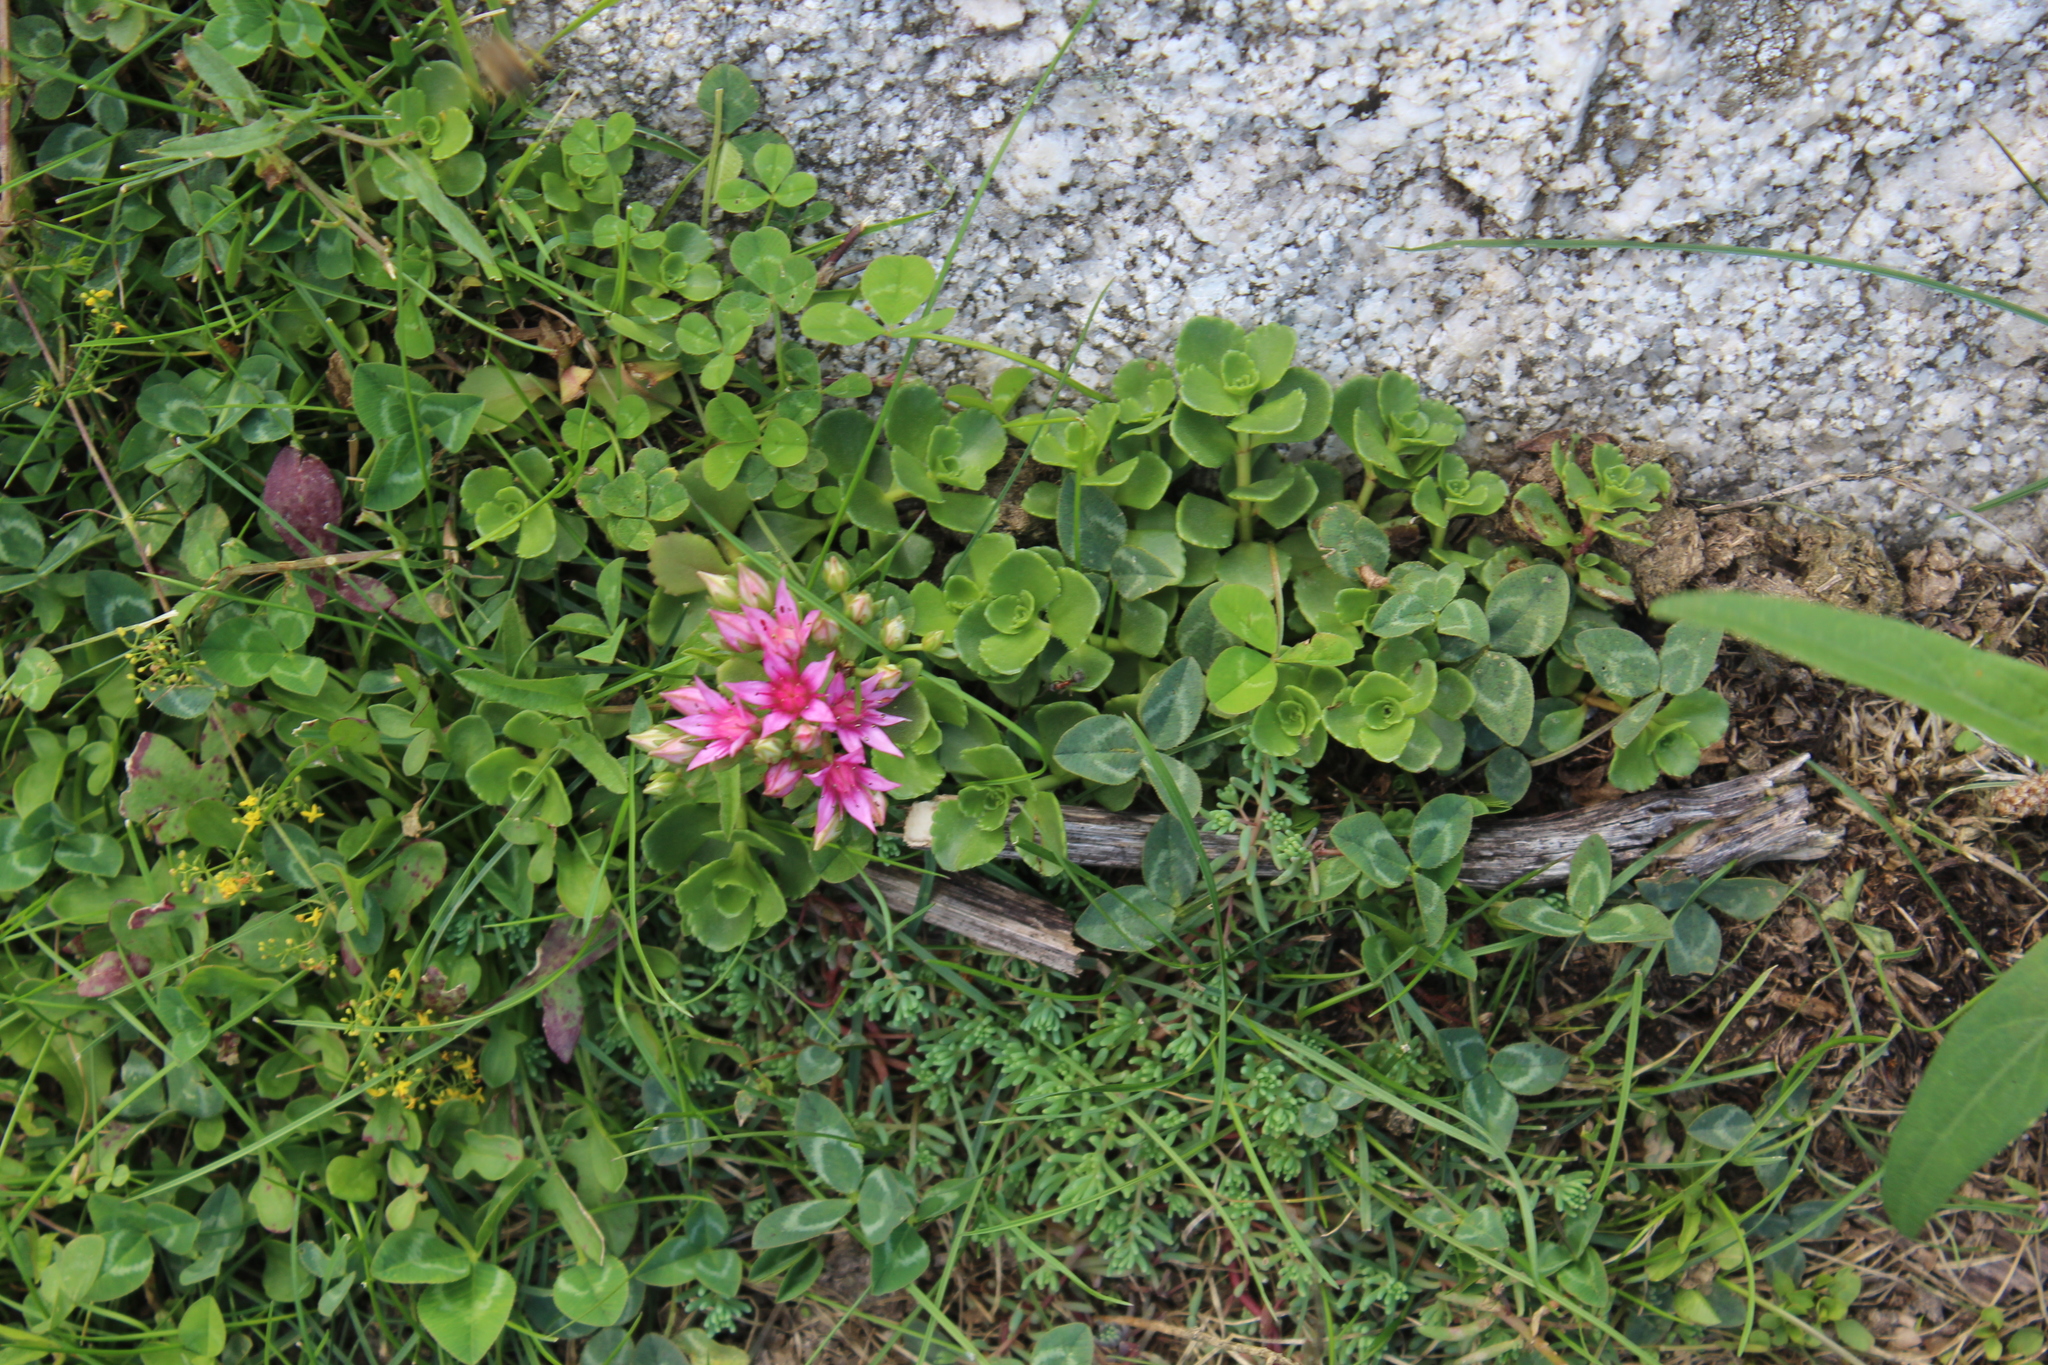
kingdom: Plantae
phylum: Tracheophyta
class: Magnoliopsida
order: Saxifragales
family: Crassulaceae
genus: Phedimus
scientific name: Phedimus spurius
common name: Caucasian stonecrop
